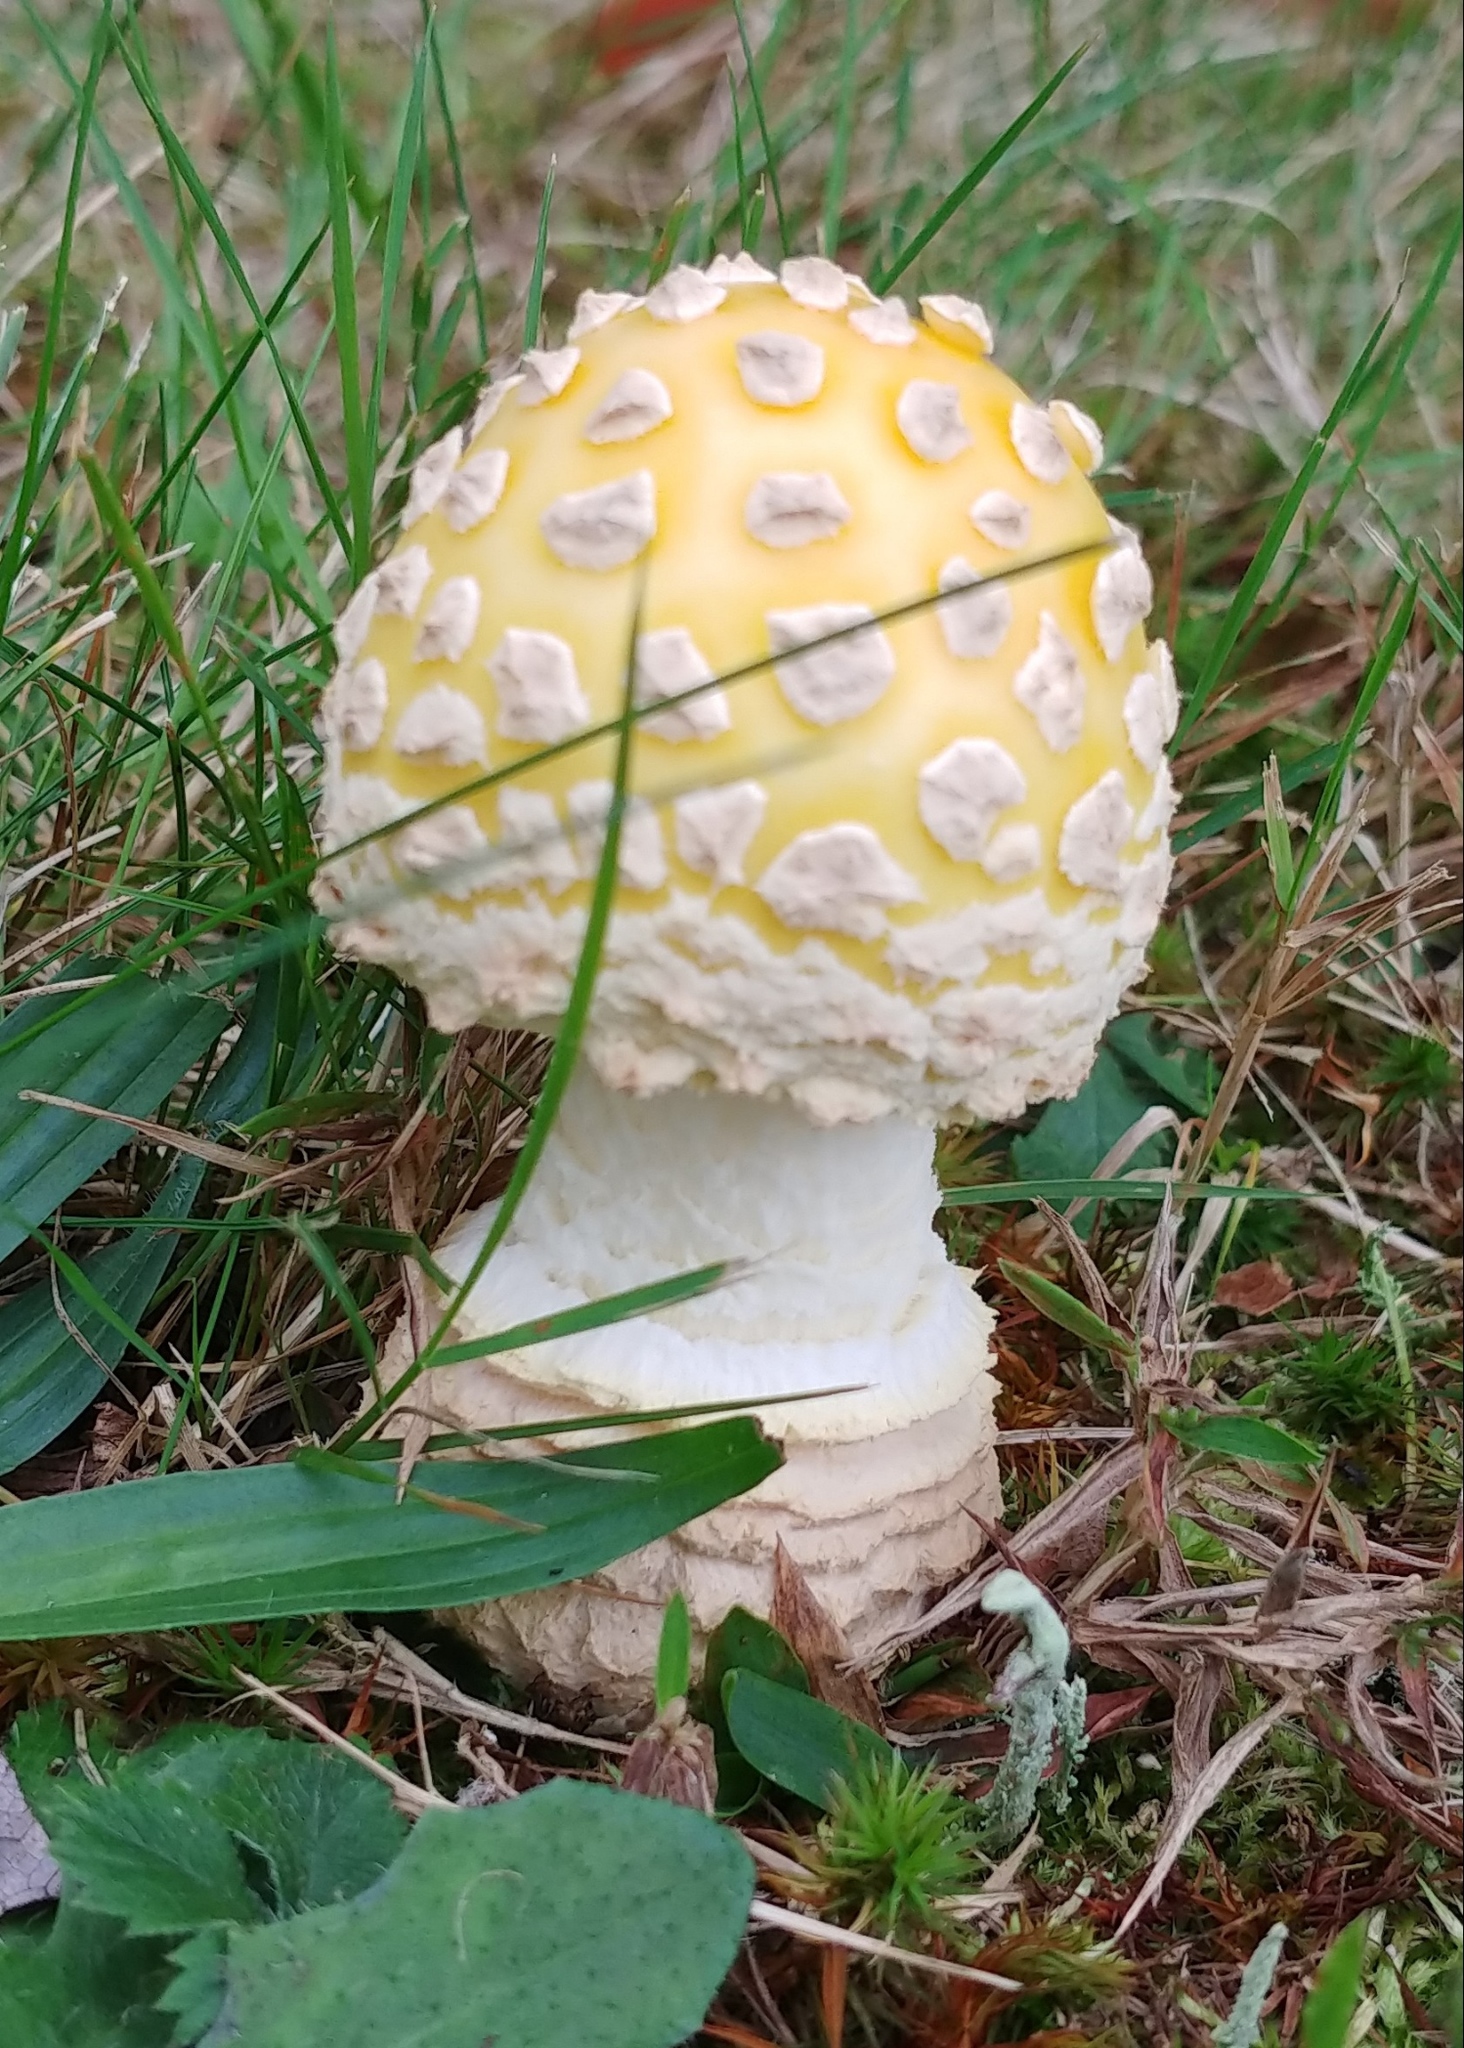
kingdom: Fungi
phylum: Basidiomycota
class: Agaricomycetes
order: Agaricales
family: Amanitaceae
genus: Amanita
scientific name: Amanita muscaria
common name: Fly agaric
